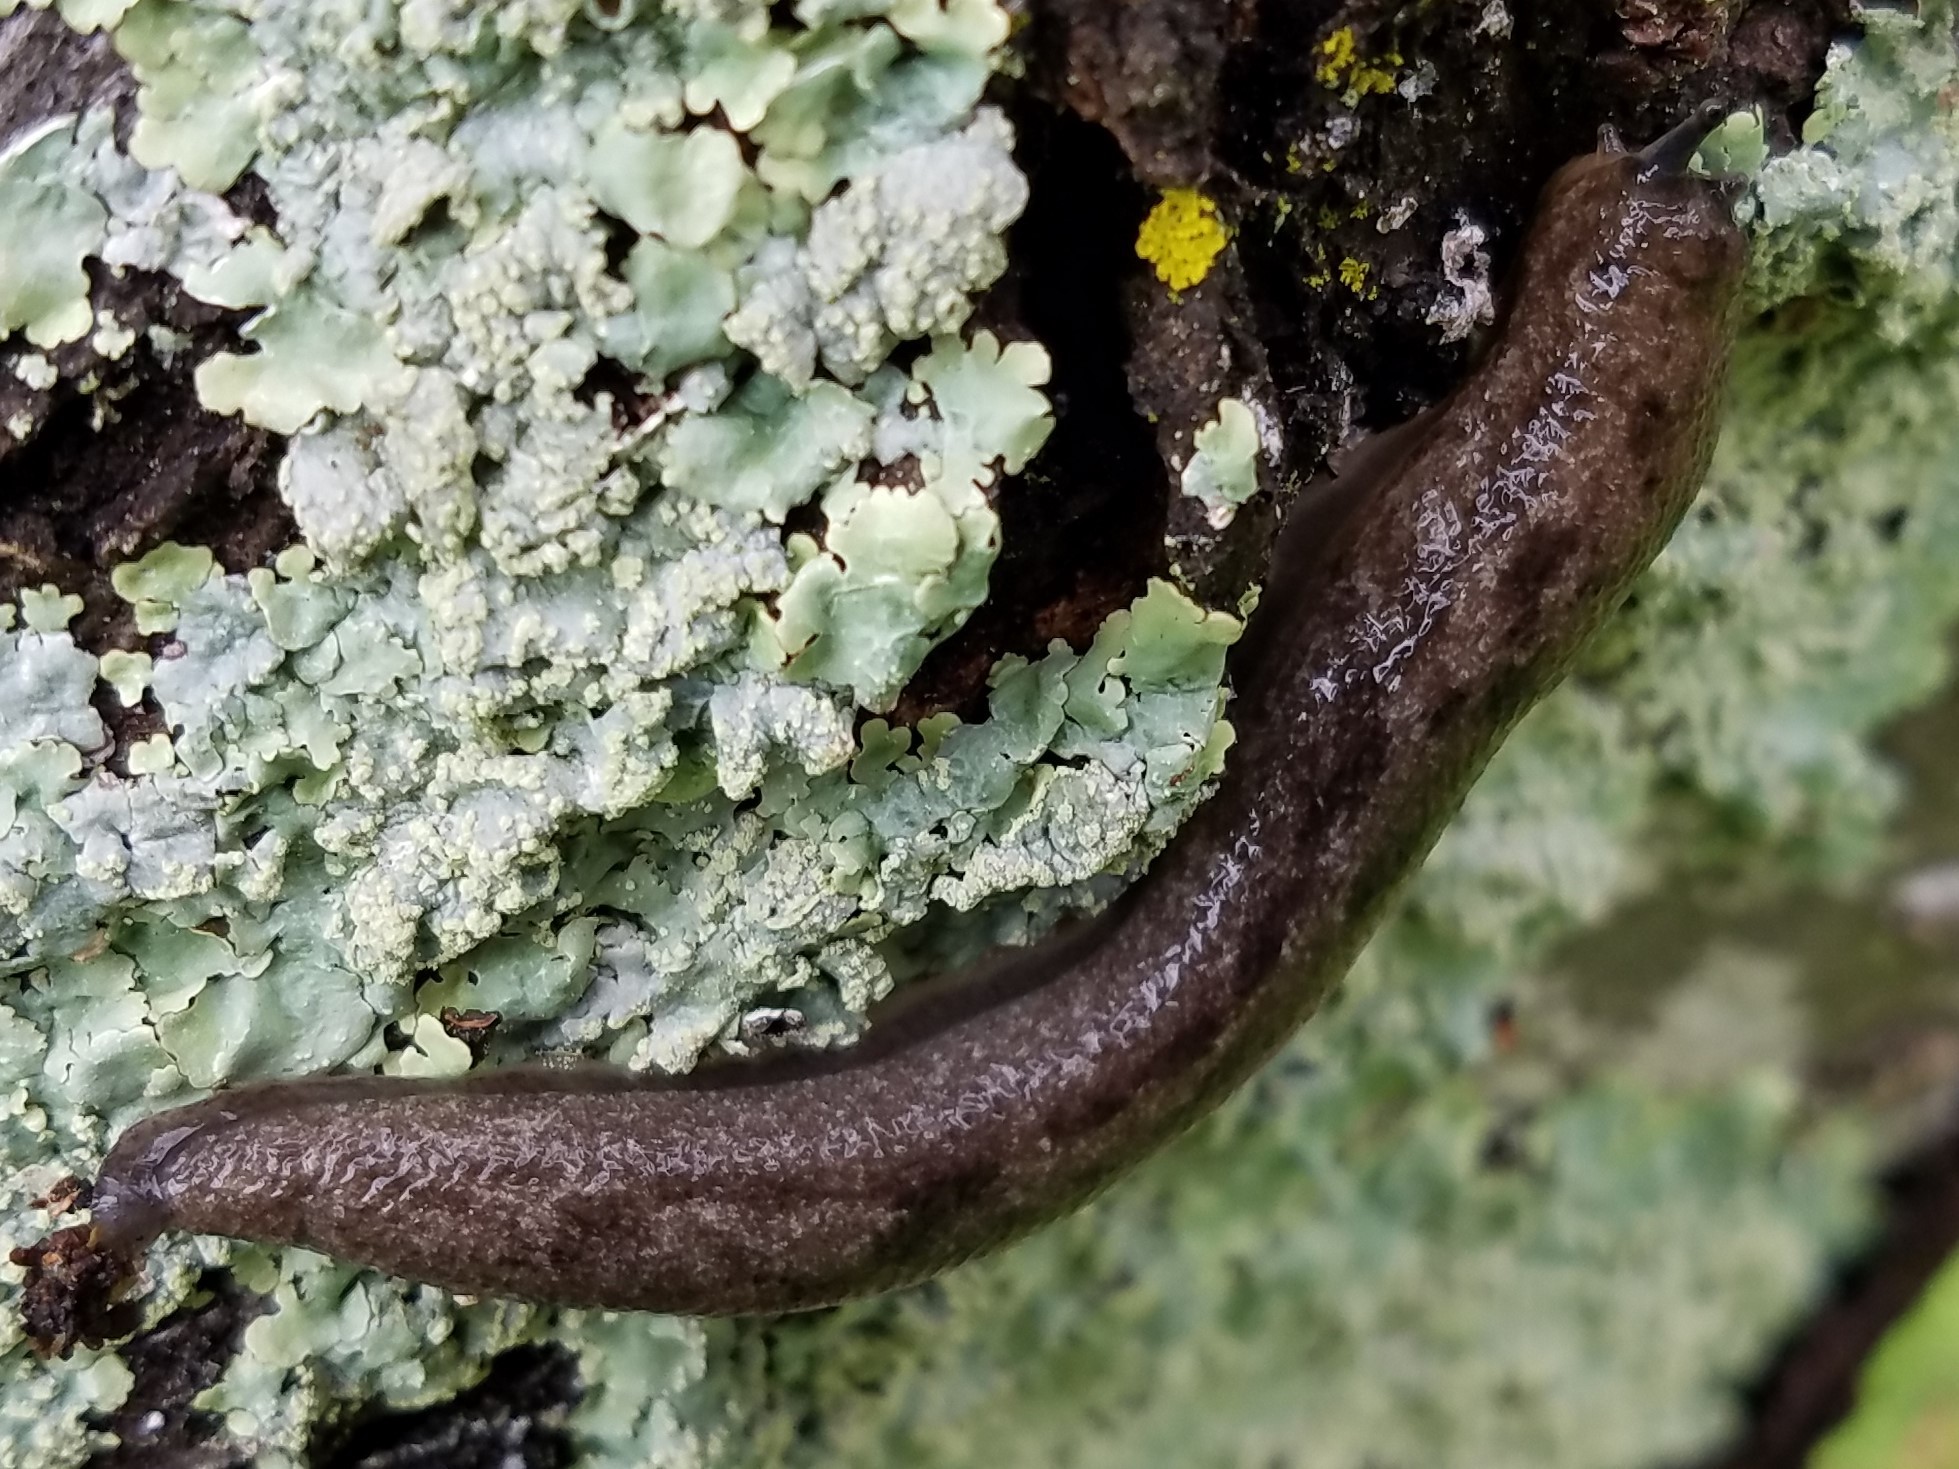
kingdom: Animalia
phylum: Mollusca
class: Gastropoda
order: Stylommatophora
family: Philomycidae
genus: Megapallifera
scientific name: Megapallifera mutabilis
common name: Changeable mantleslug
